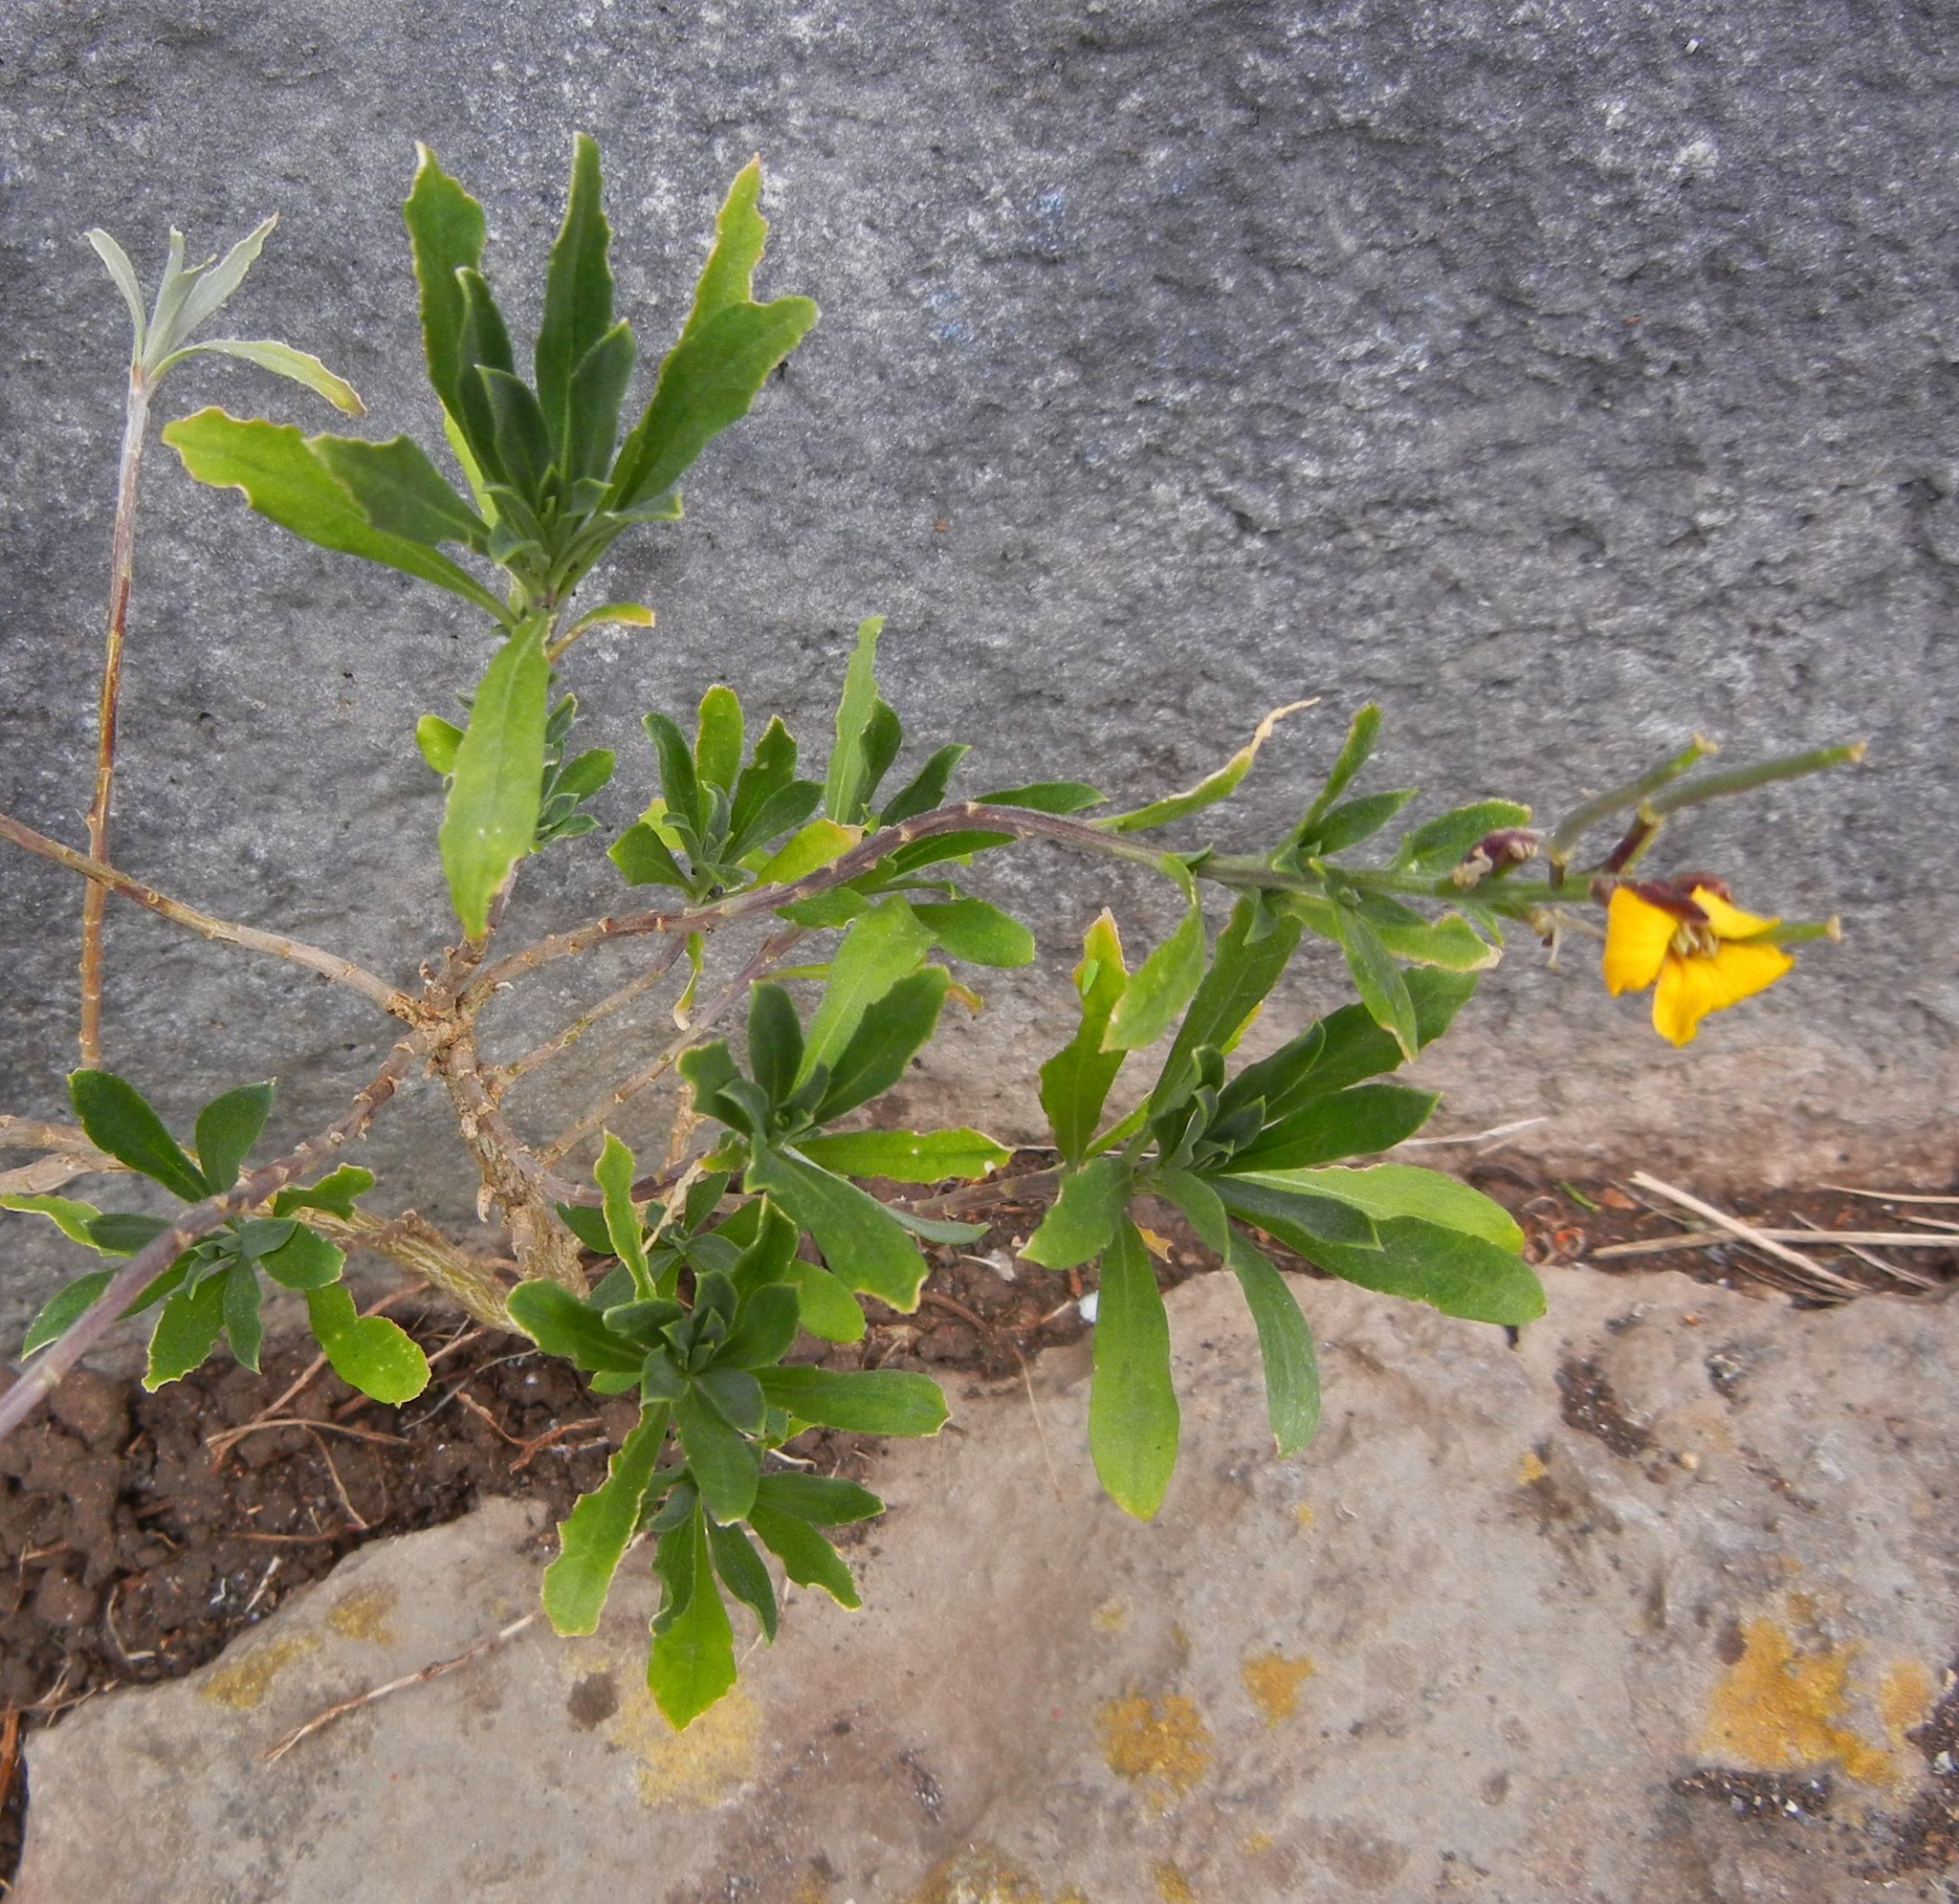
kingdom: Plantae
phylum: Tracheophyta
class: Magnoliopsida
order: Brassicales
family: Brassicaceae
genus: Erysimum
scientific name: Erysimum cheiri
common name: Wallflower
